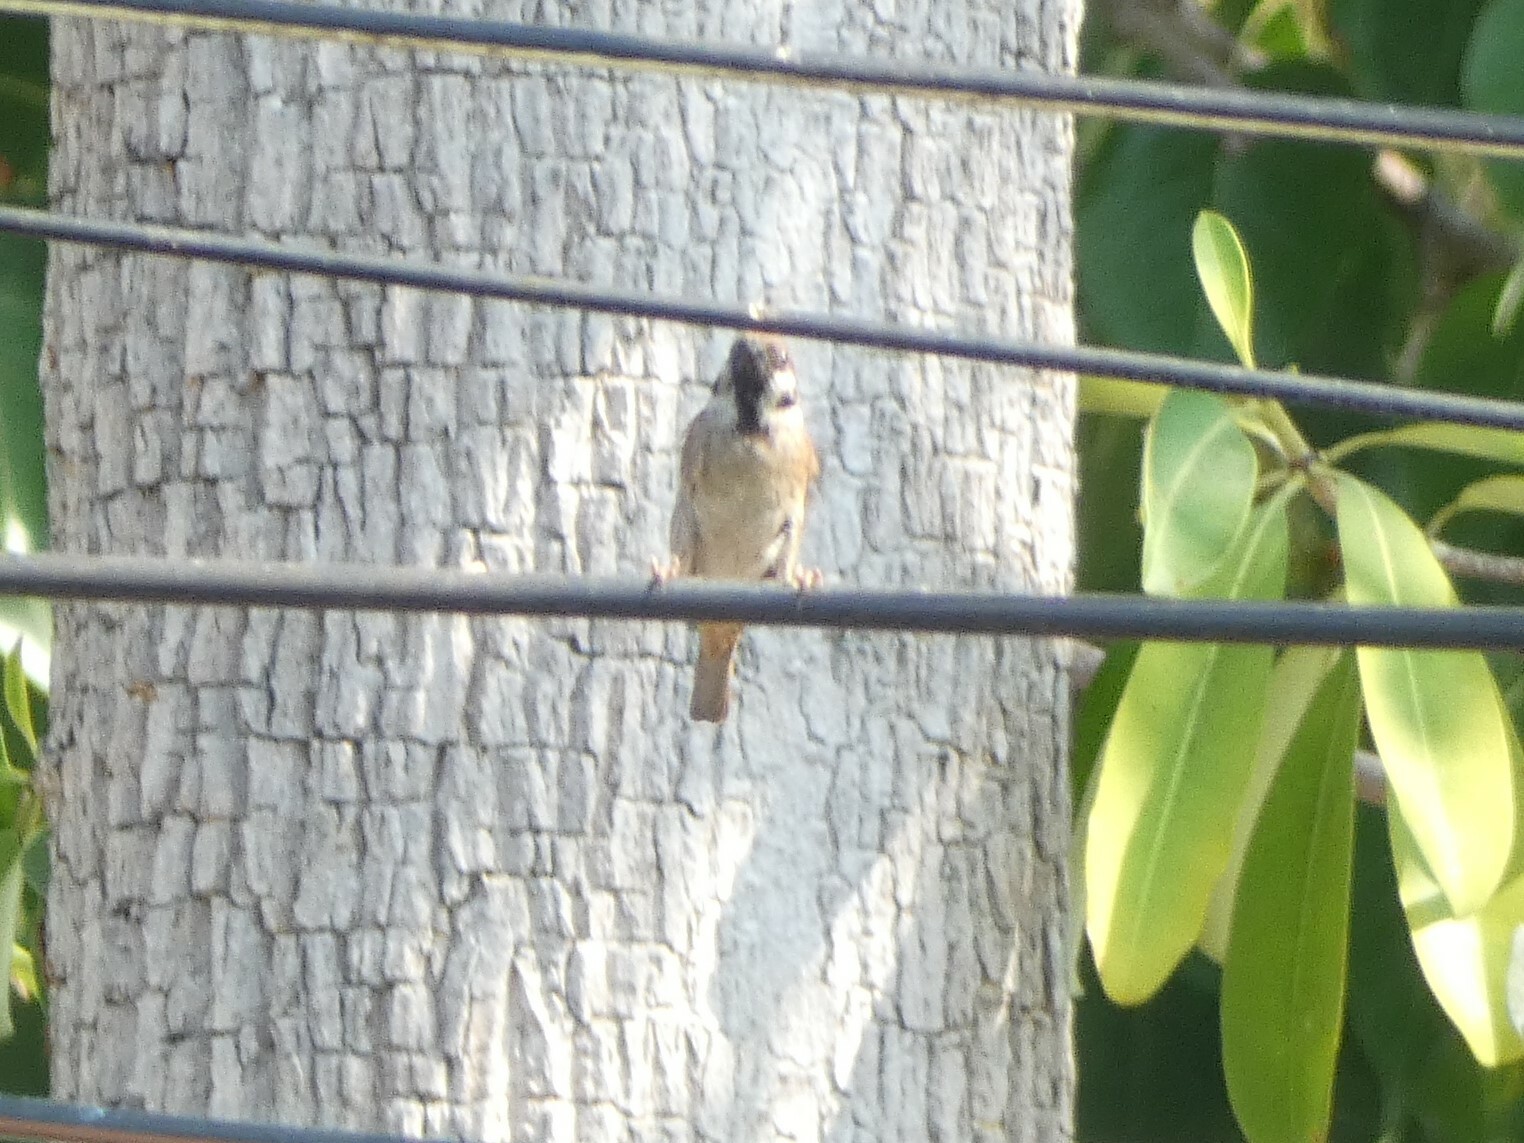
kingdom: Animalia
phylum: Chordata
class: Aves
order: Passeriformes
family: Passeridae
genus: Passer
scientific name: Passer montanus
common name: Eurasian tree sparrow
